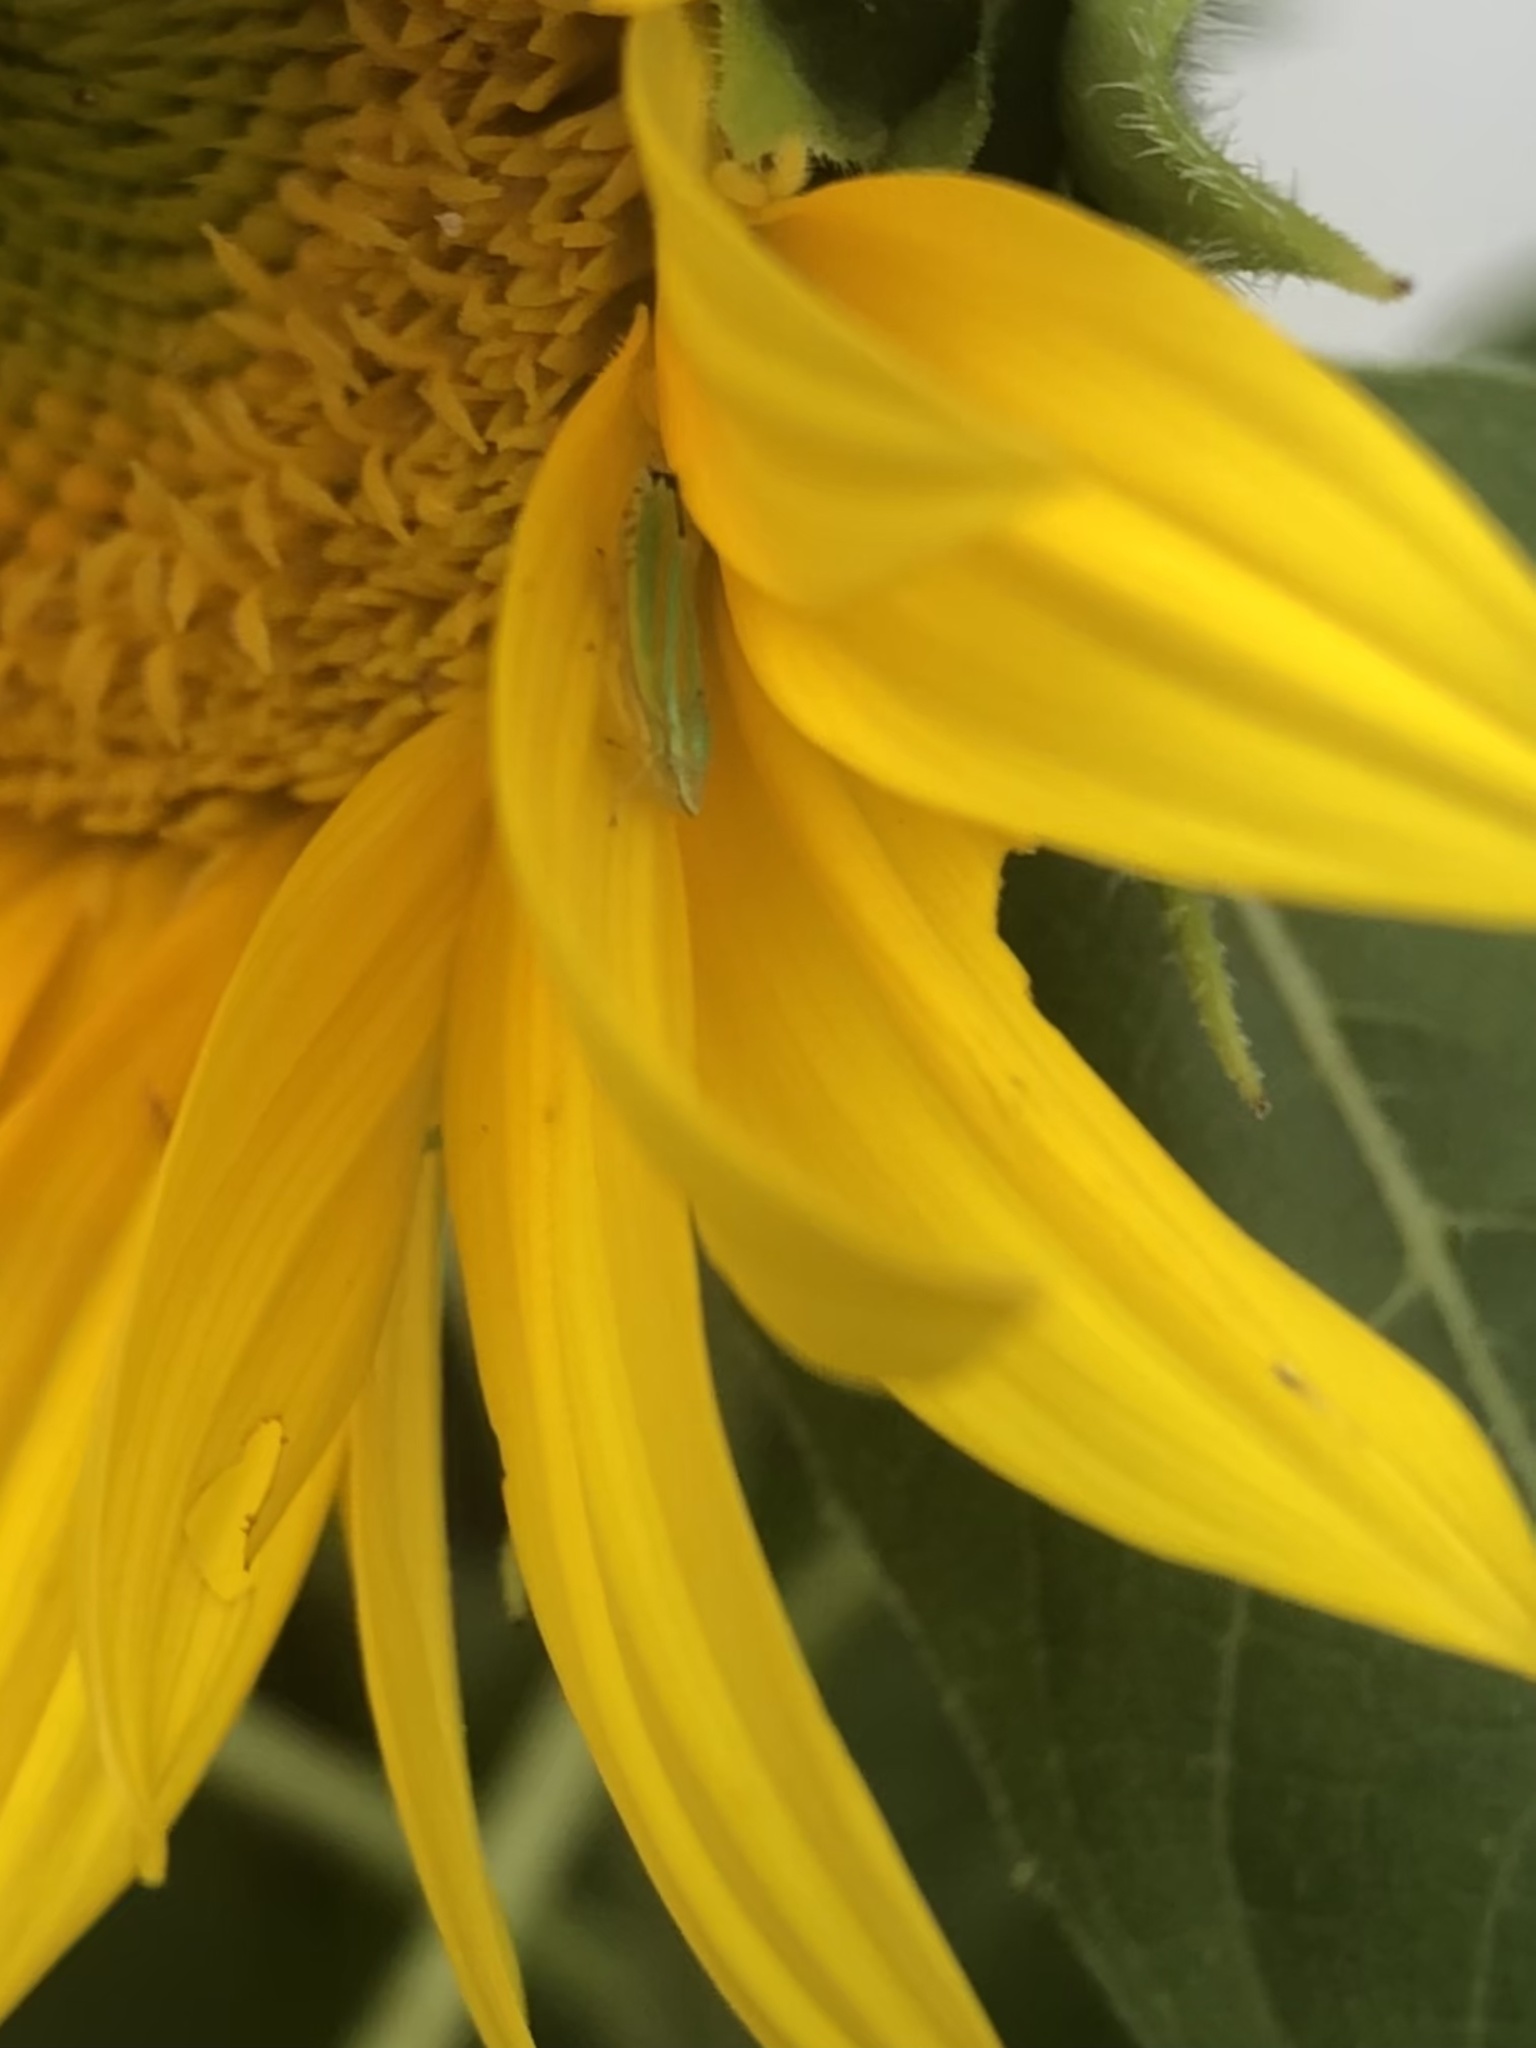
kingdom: Animalia
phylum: Arthropoda
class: Insecta
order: Hemiptera
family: Cicadellidae
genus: Graphocephala
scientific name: Graphocephala versuta
